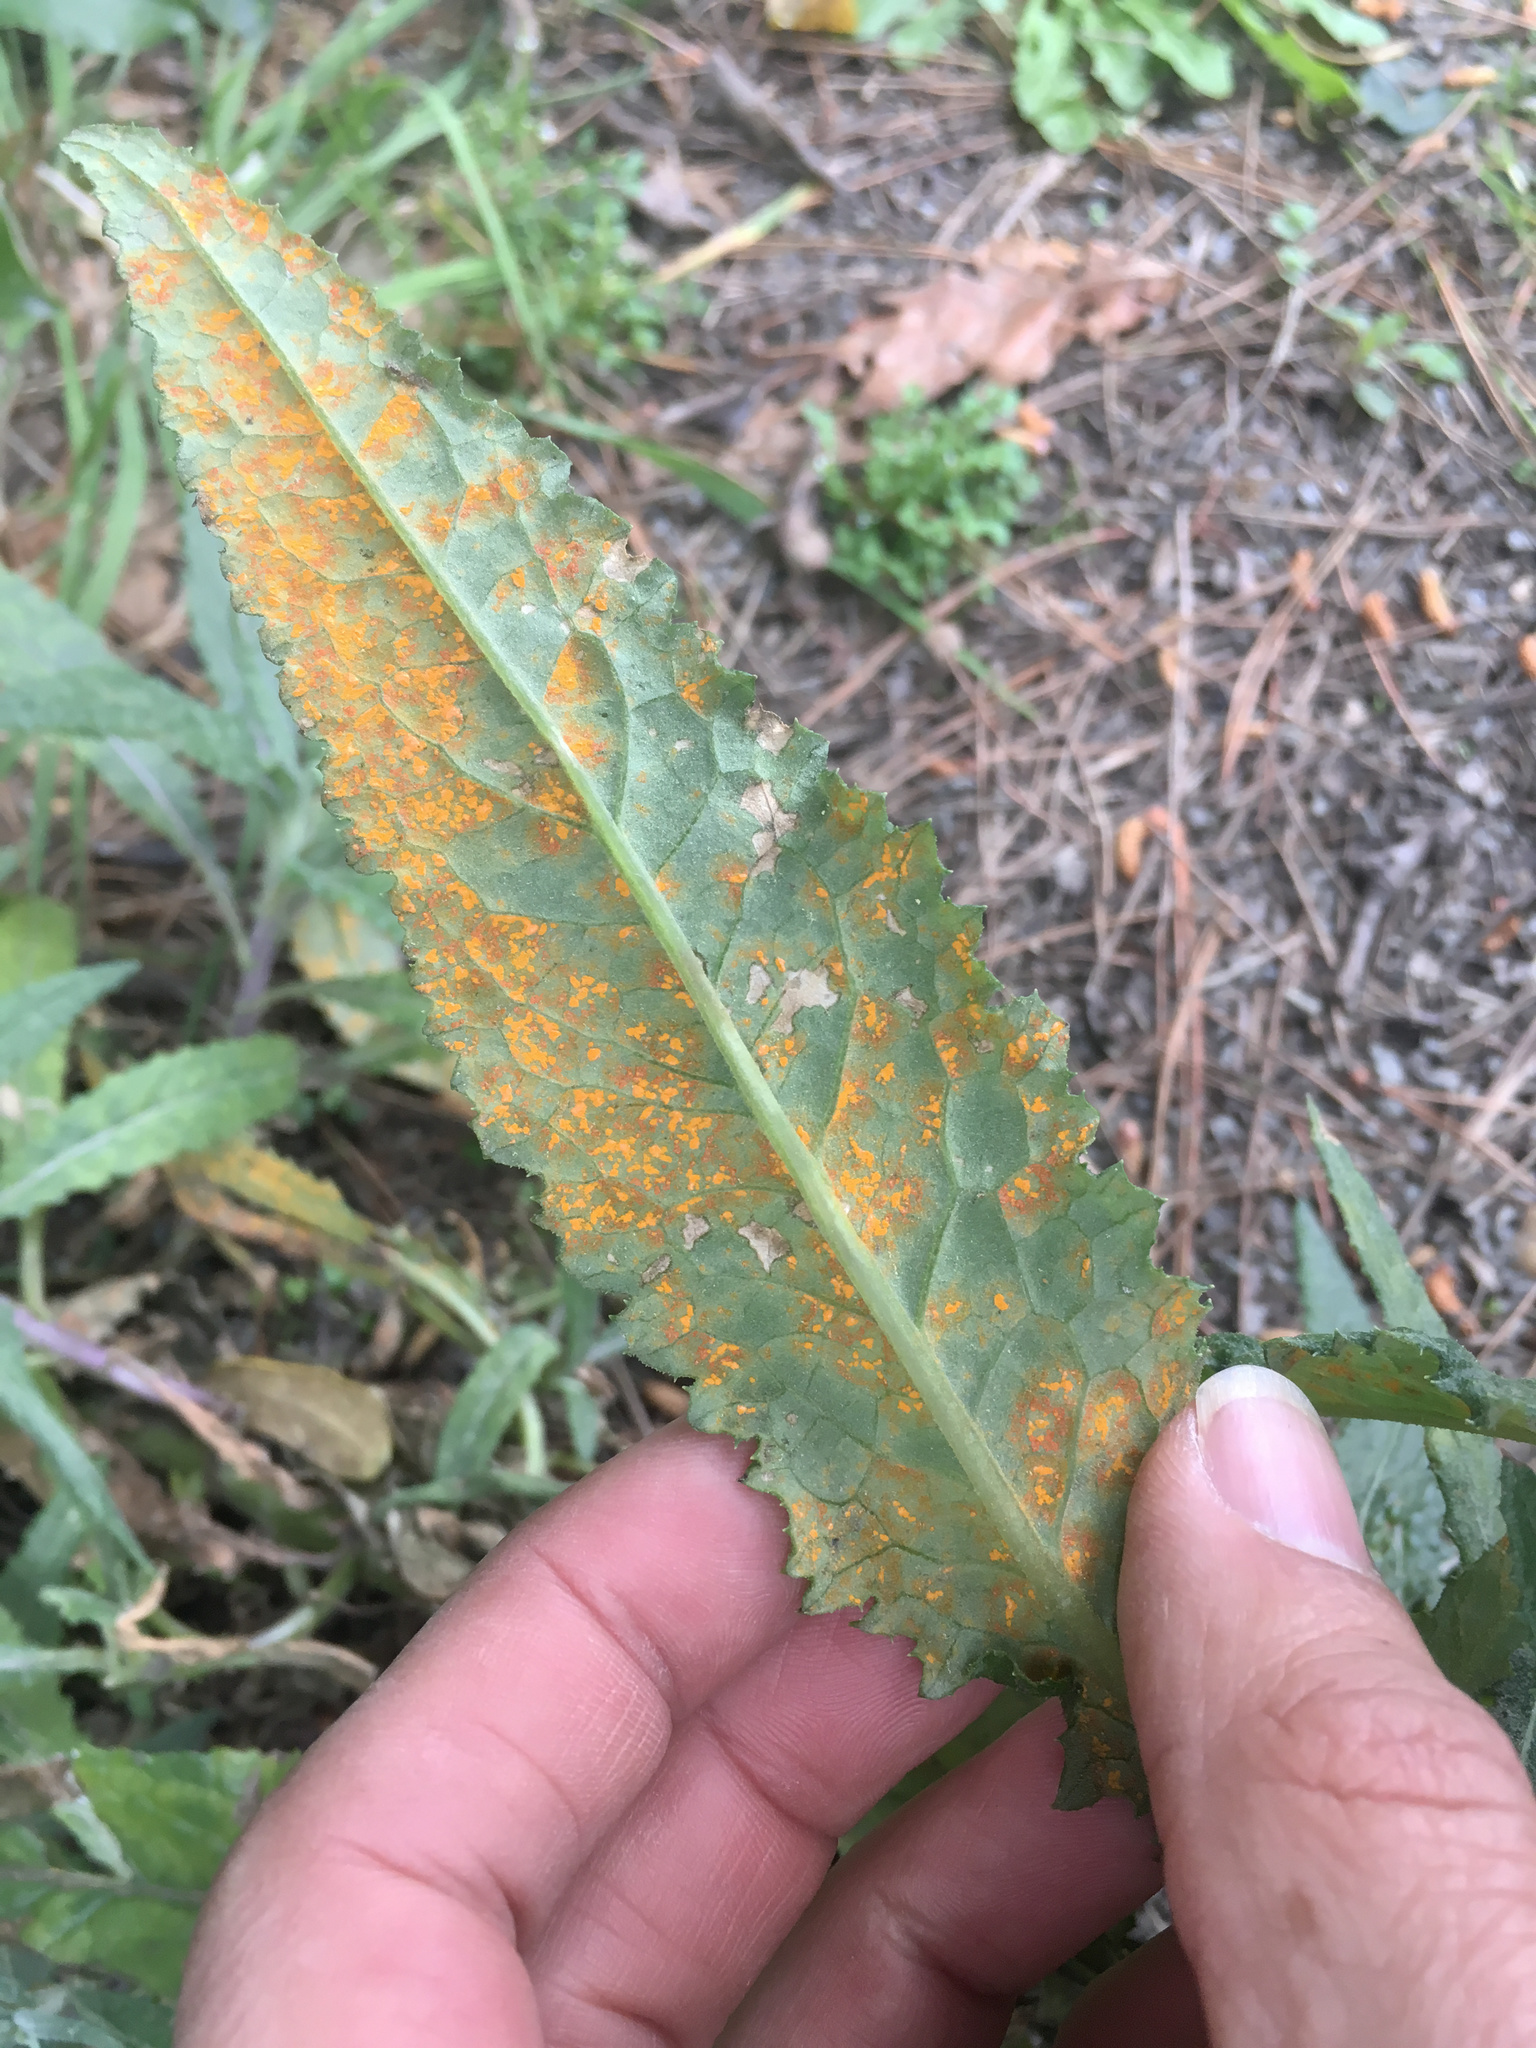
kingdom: Fungi
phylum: Basidiomycota
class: Pucciniomycetes
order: Pucciniales
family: Coleosporiaceae
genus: Coleosporium
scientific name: Coleosporium tussilaginis
